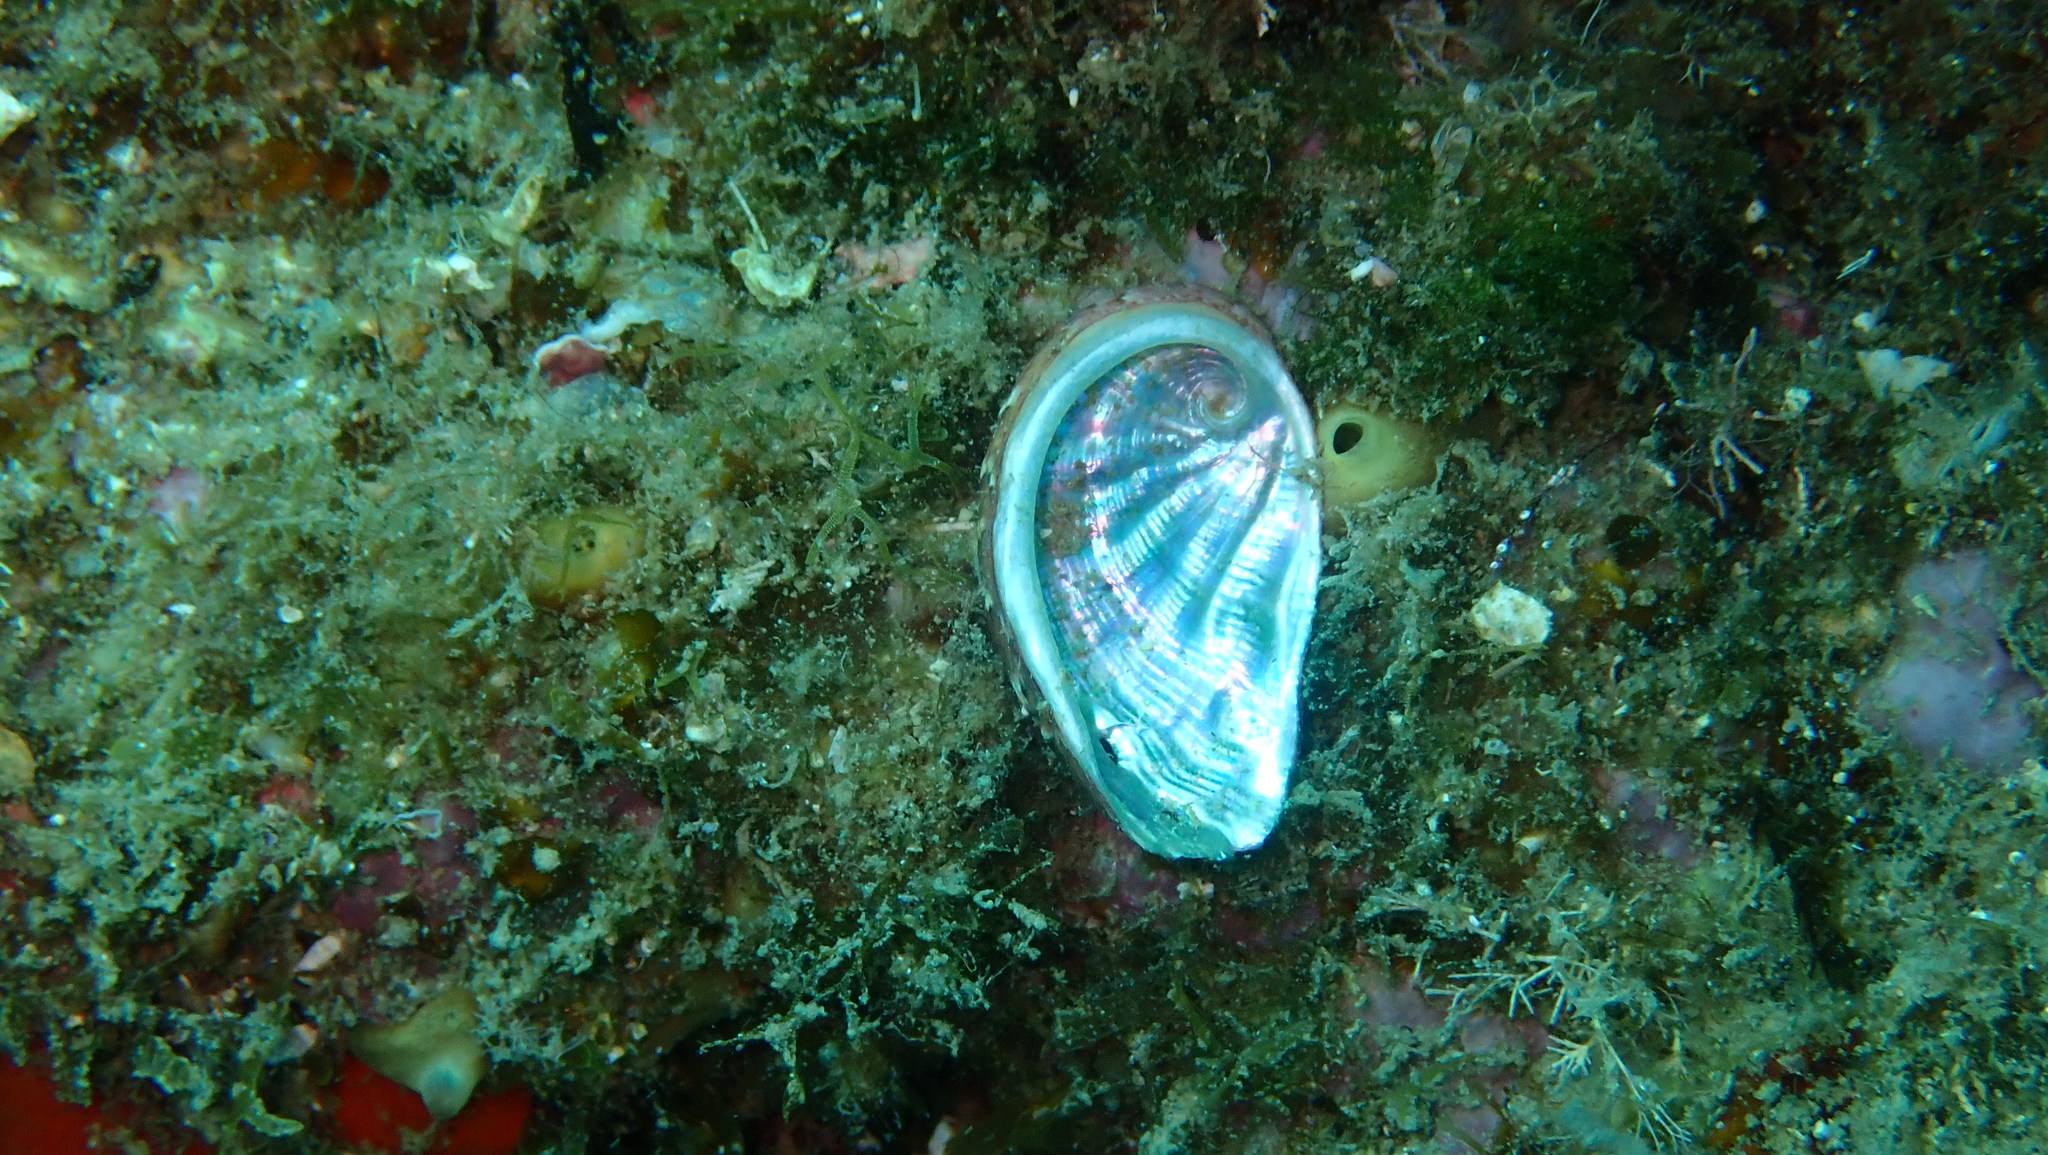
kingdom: Animalia
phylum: Mollusca
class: Gastropoda
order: Lepetellida
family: Haliotidae
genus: Haliotis
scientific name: Haliotis tuberculata
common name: Green ormer
